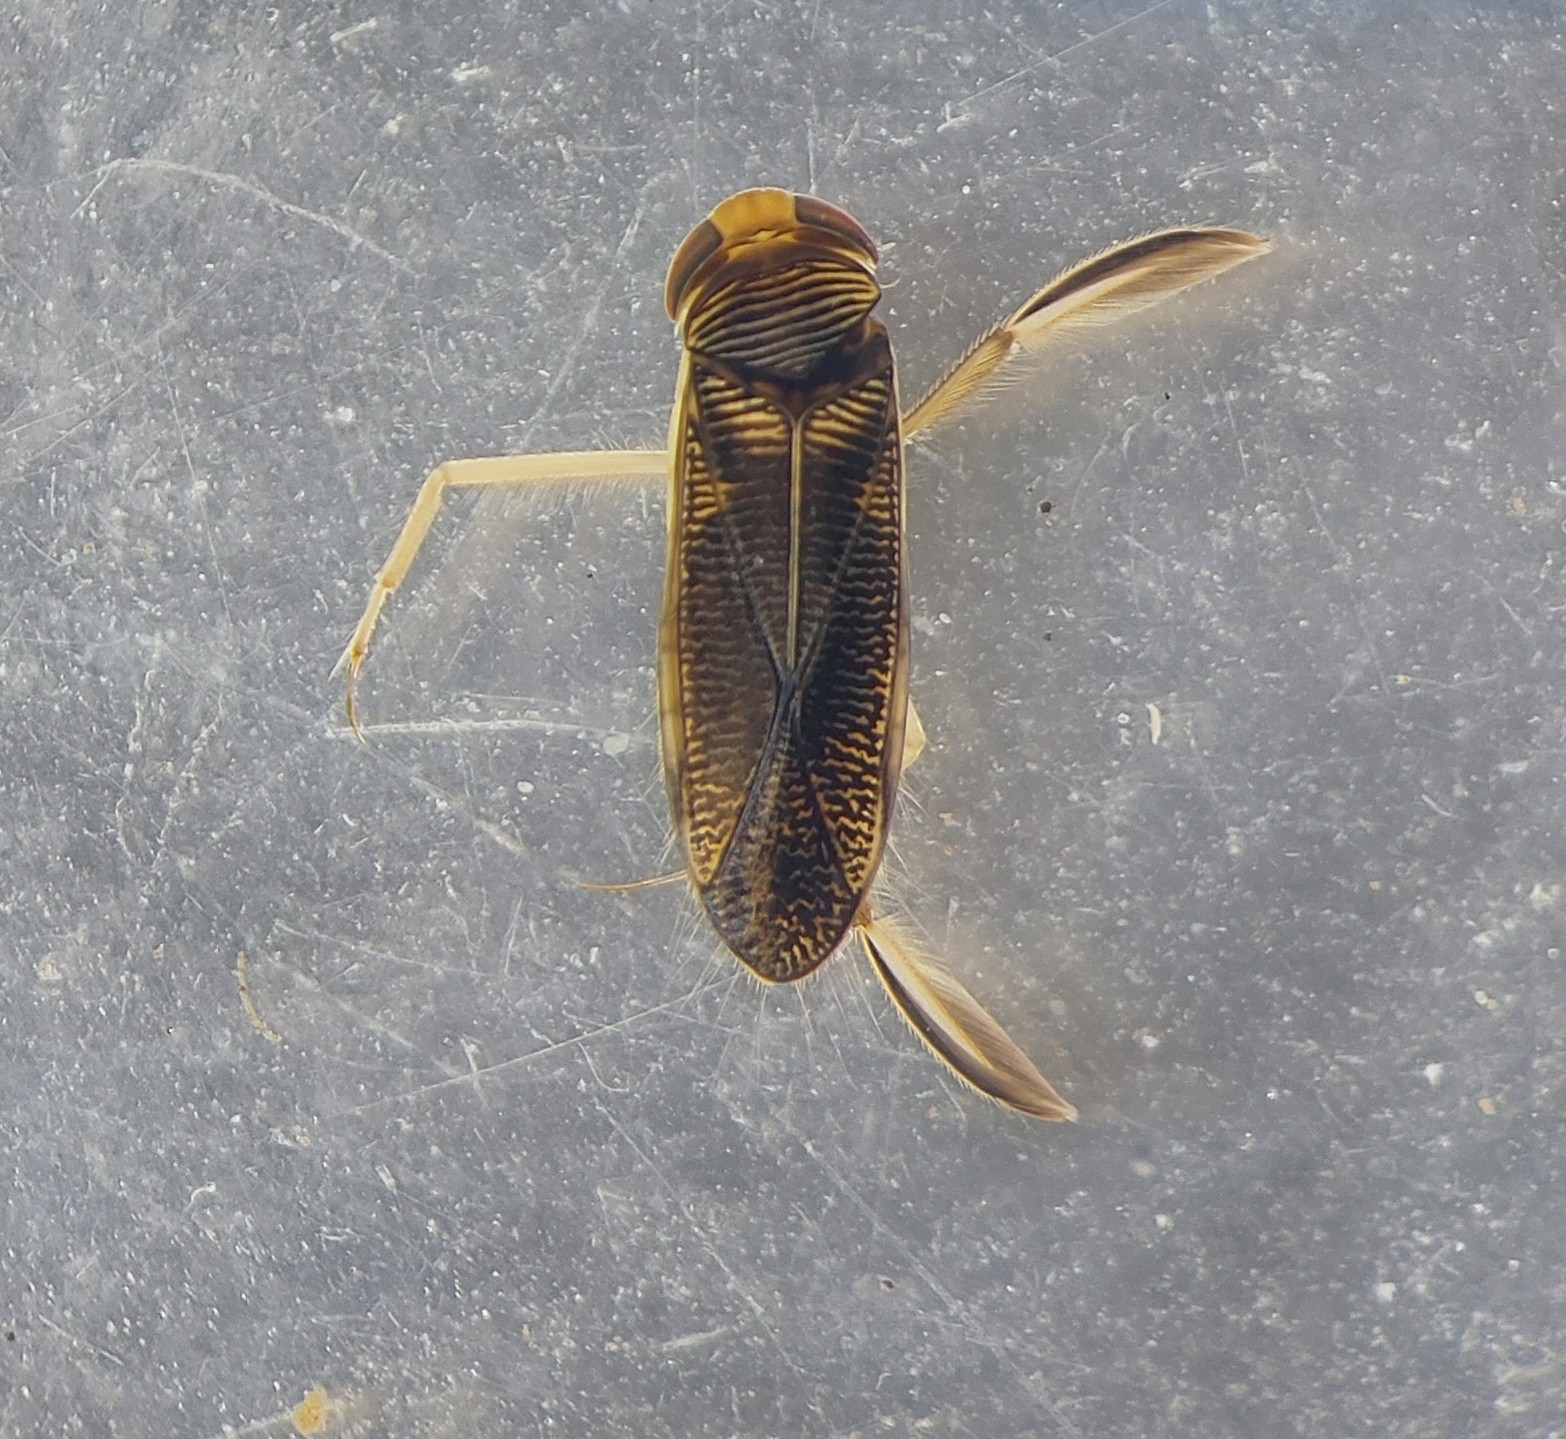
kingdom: Animalia
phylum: Arthropoda
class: Insecta
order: Hemiptera
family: Corixidae
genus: Sigara
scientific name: Sigara iactans
